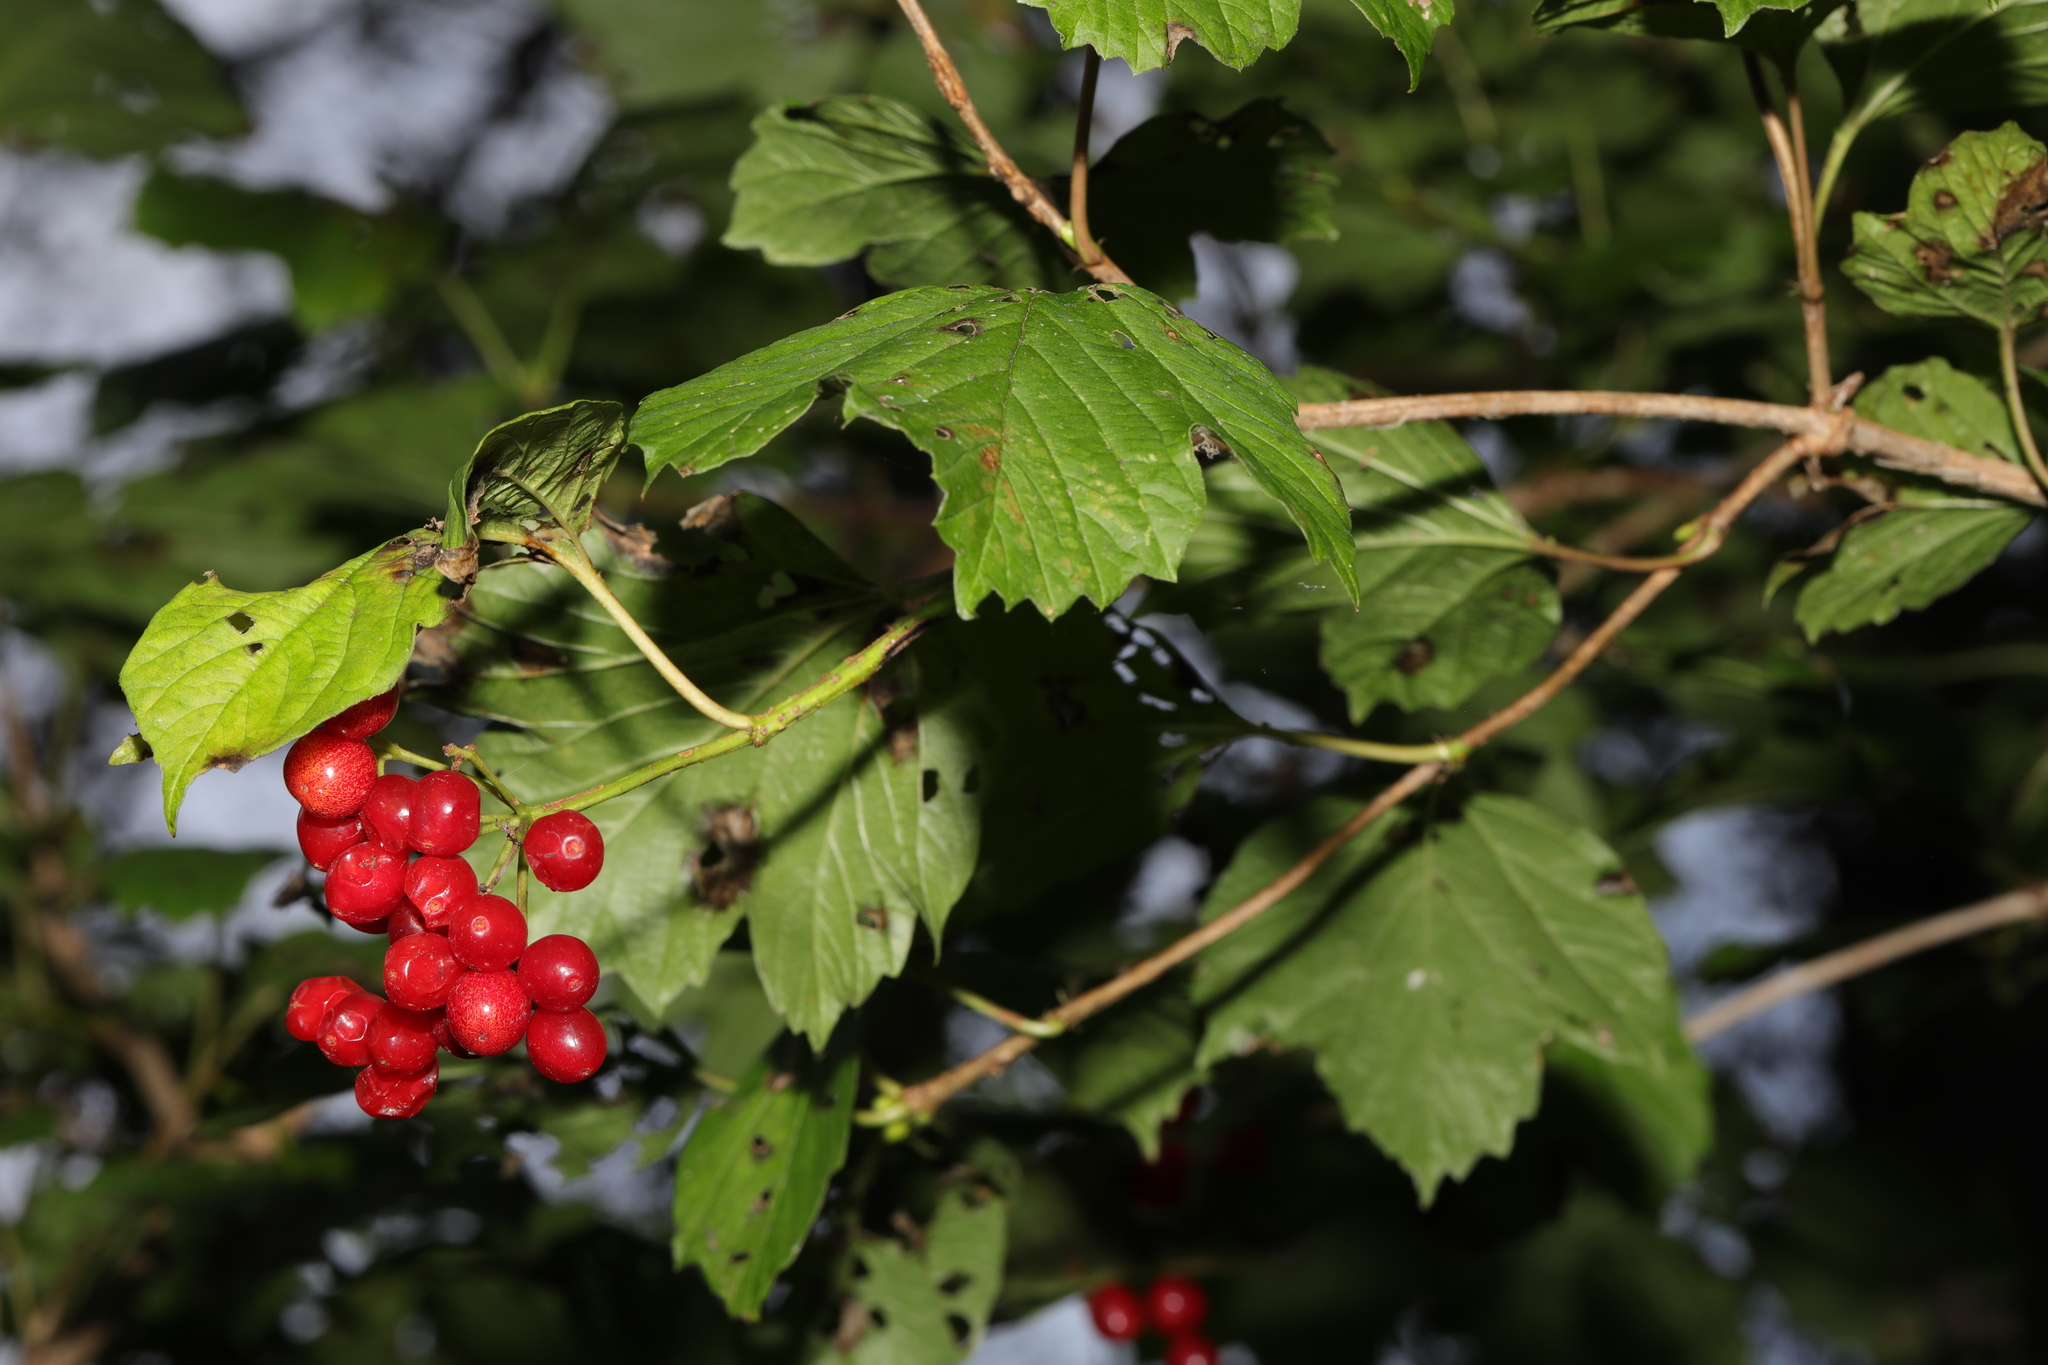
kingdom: Plantae
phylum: Tracheophyta
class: Magnoliopsida
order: Dipsacales
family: Viburnaceae
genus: Viburnum
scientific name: Viburnum opulus
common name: Guelder-rose
